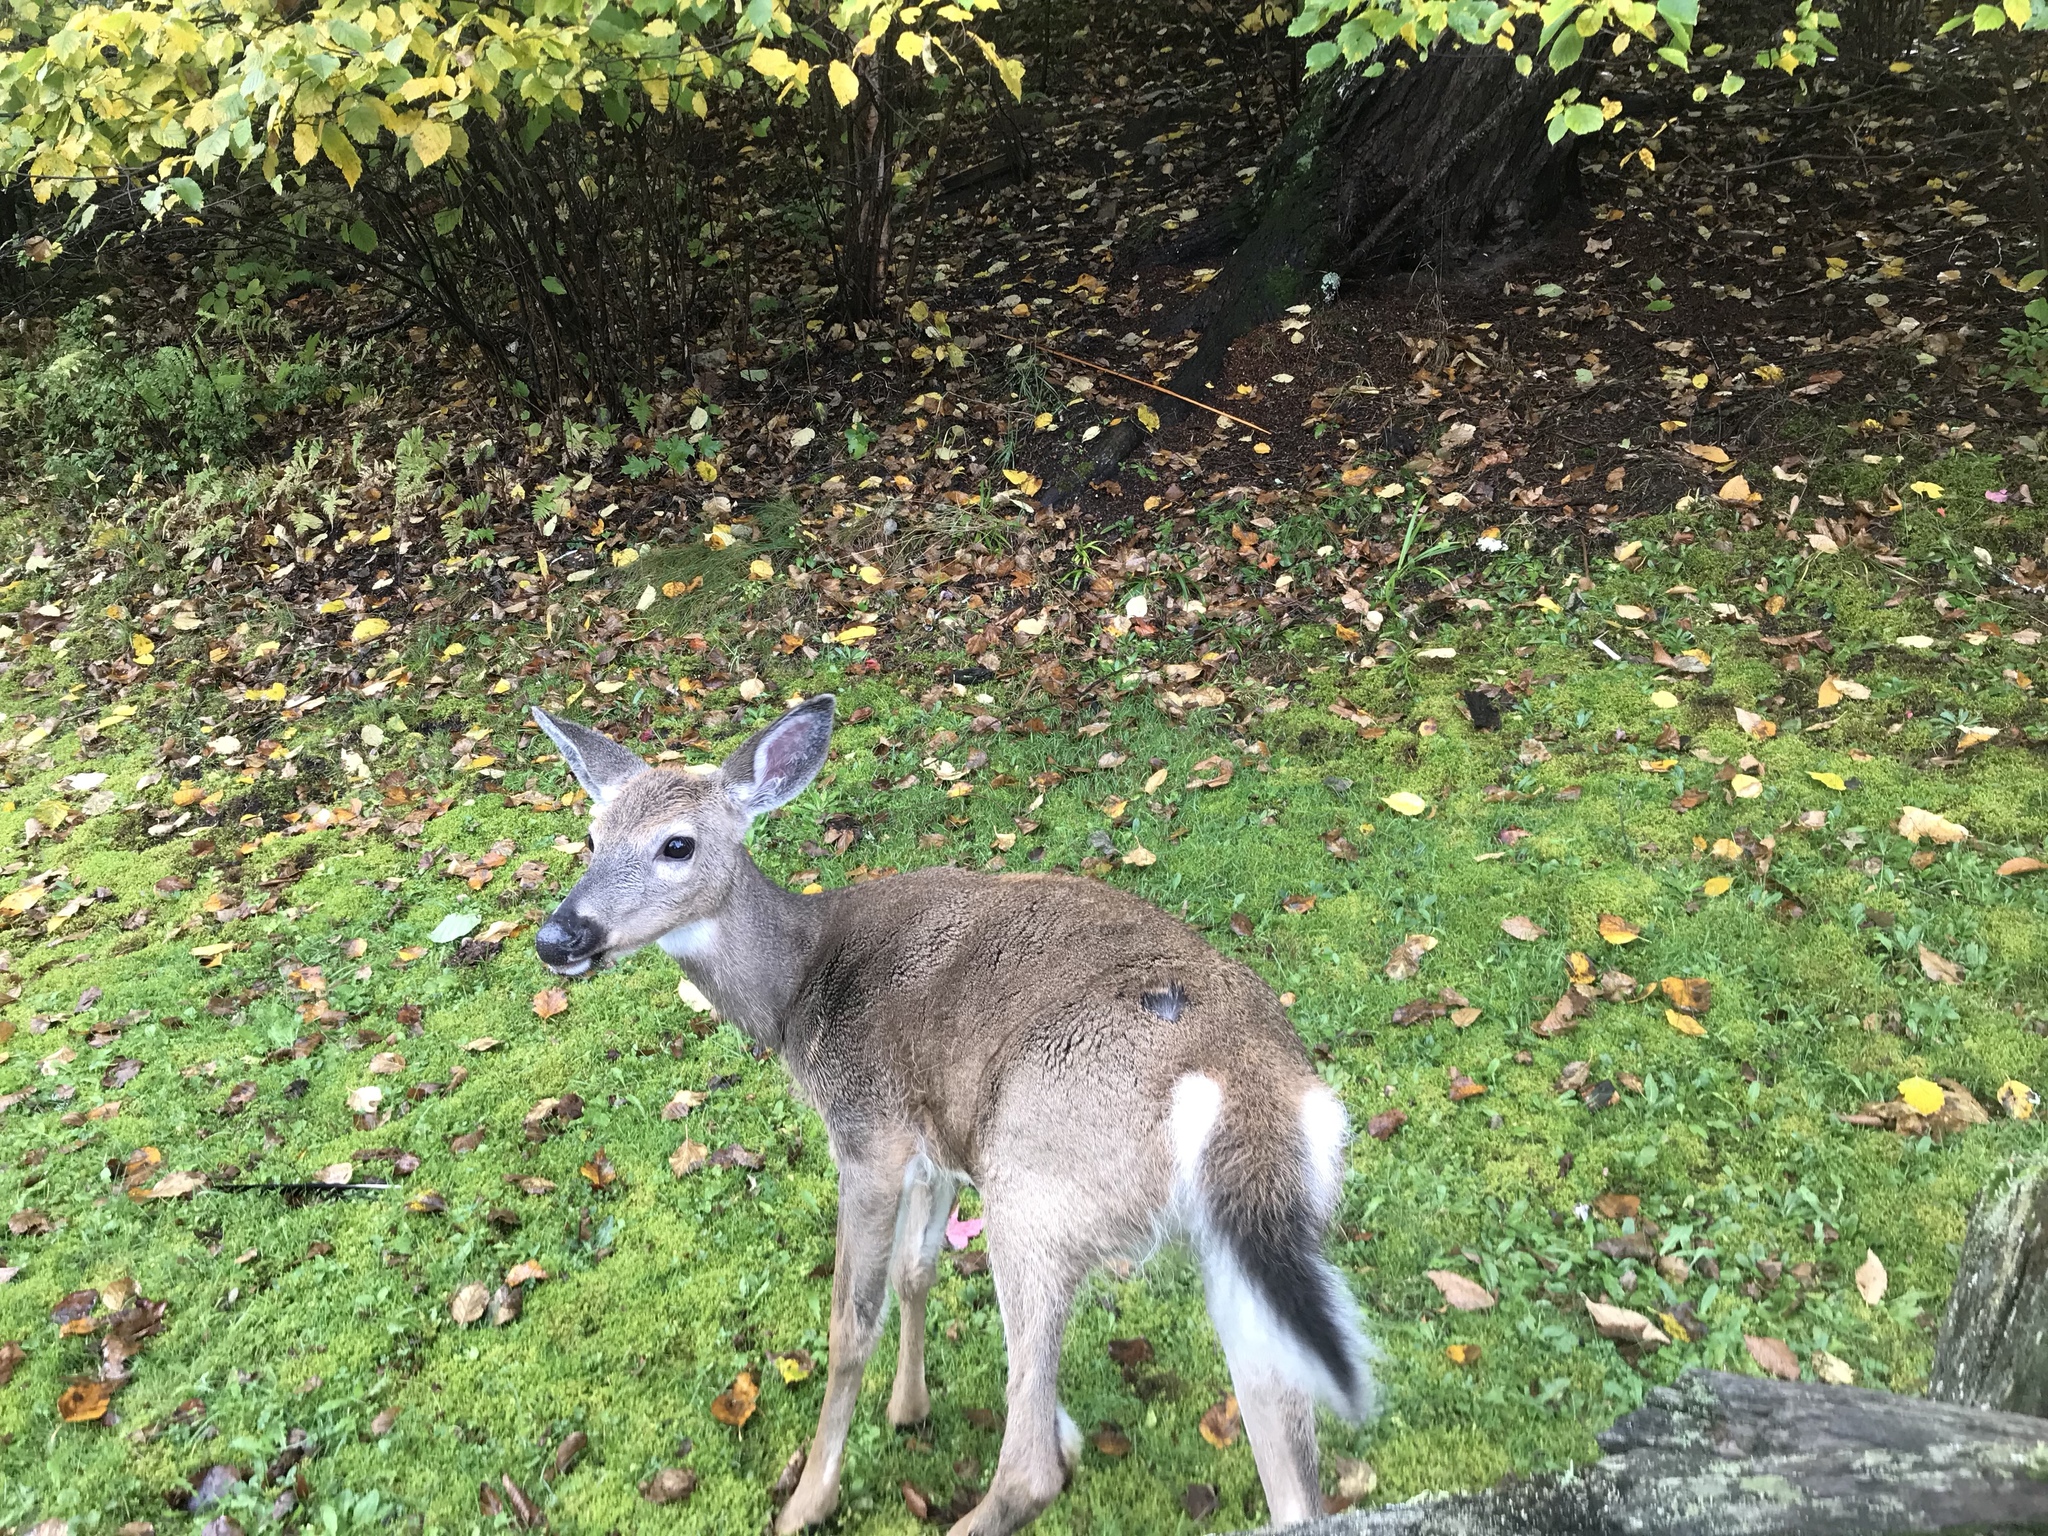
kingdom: Animalia
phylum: Chordata
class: Mammalia
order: Artiodactyla
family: Cervidae
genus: Odocoileus
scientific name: Odocoileus virginianus
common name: White-tailed deer
